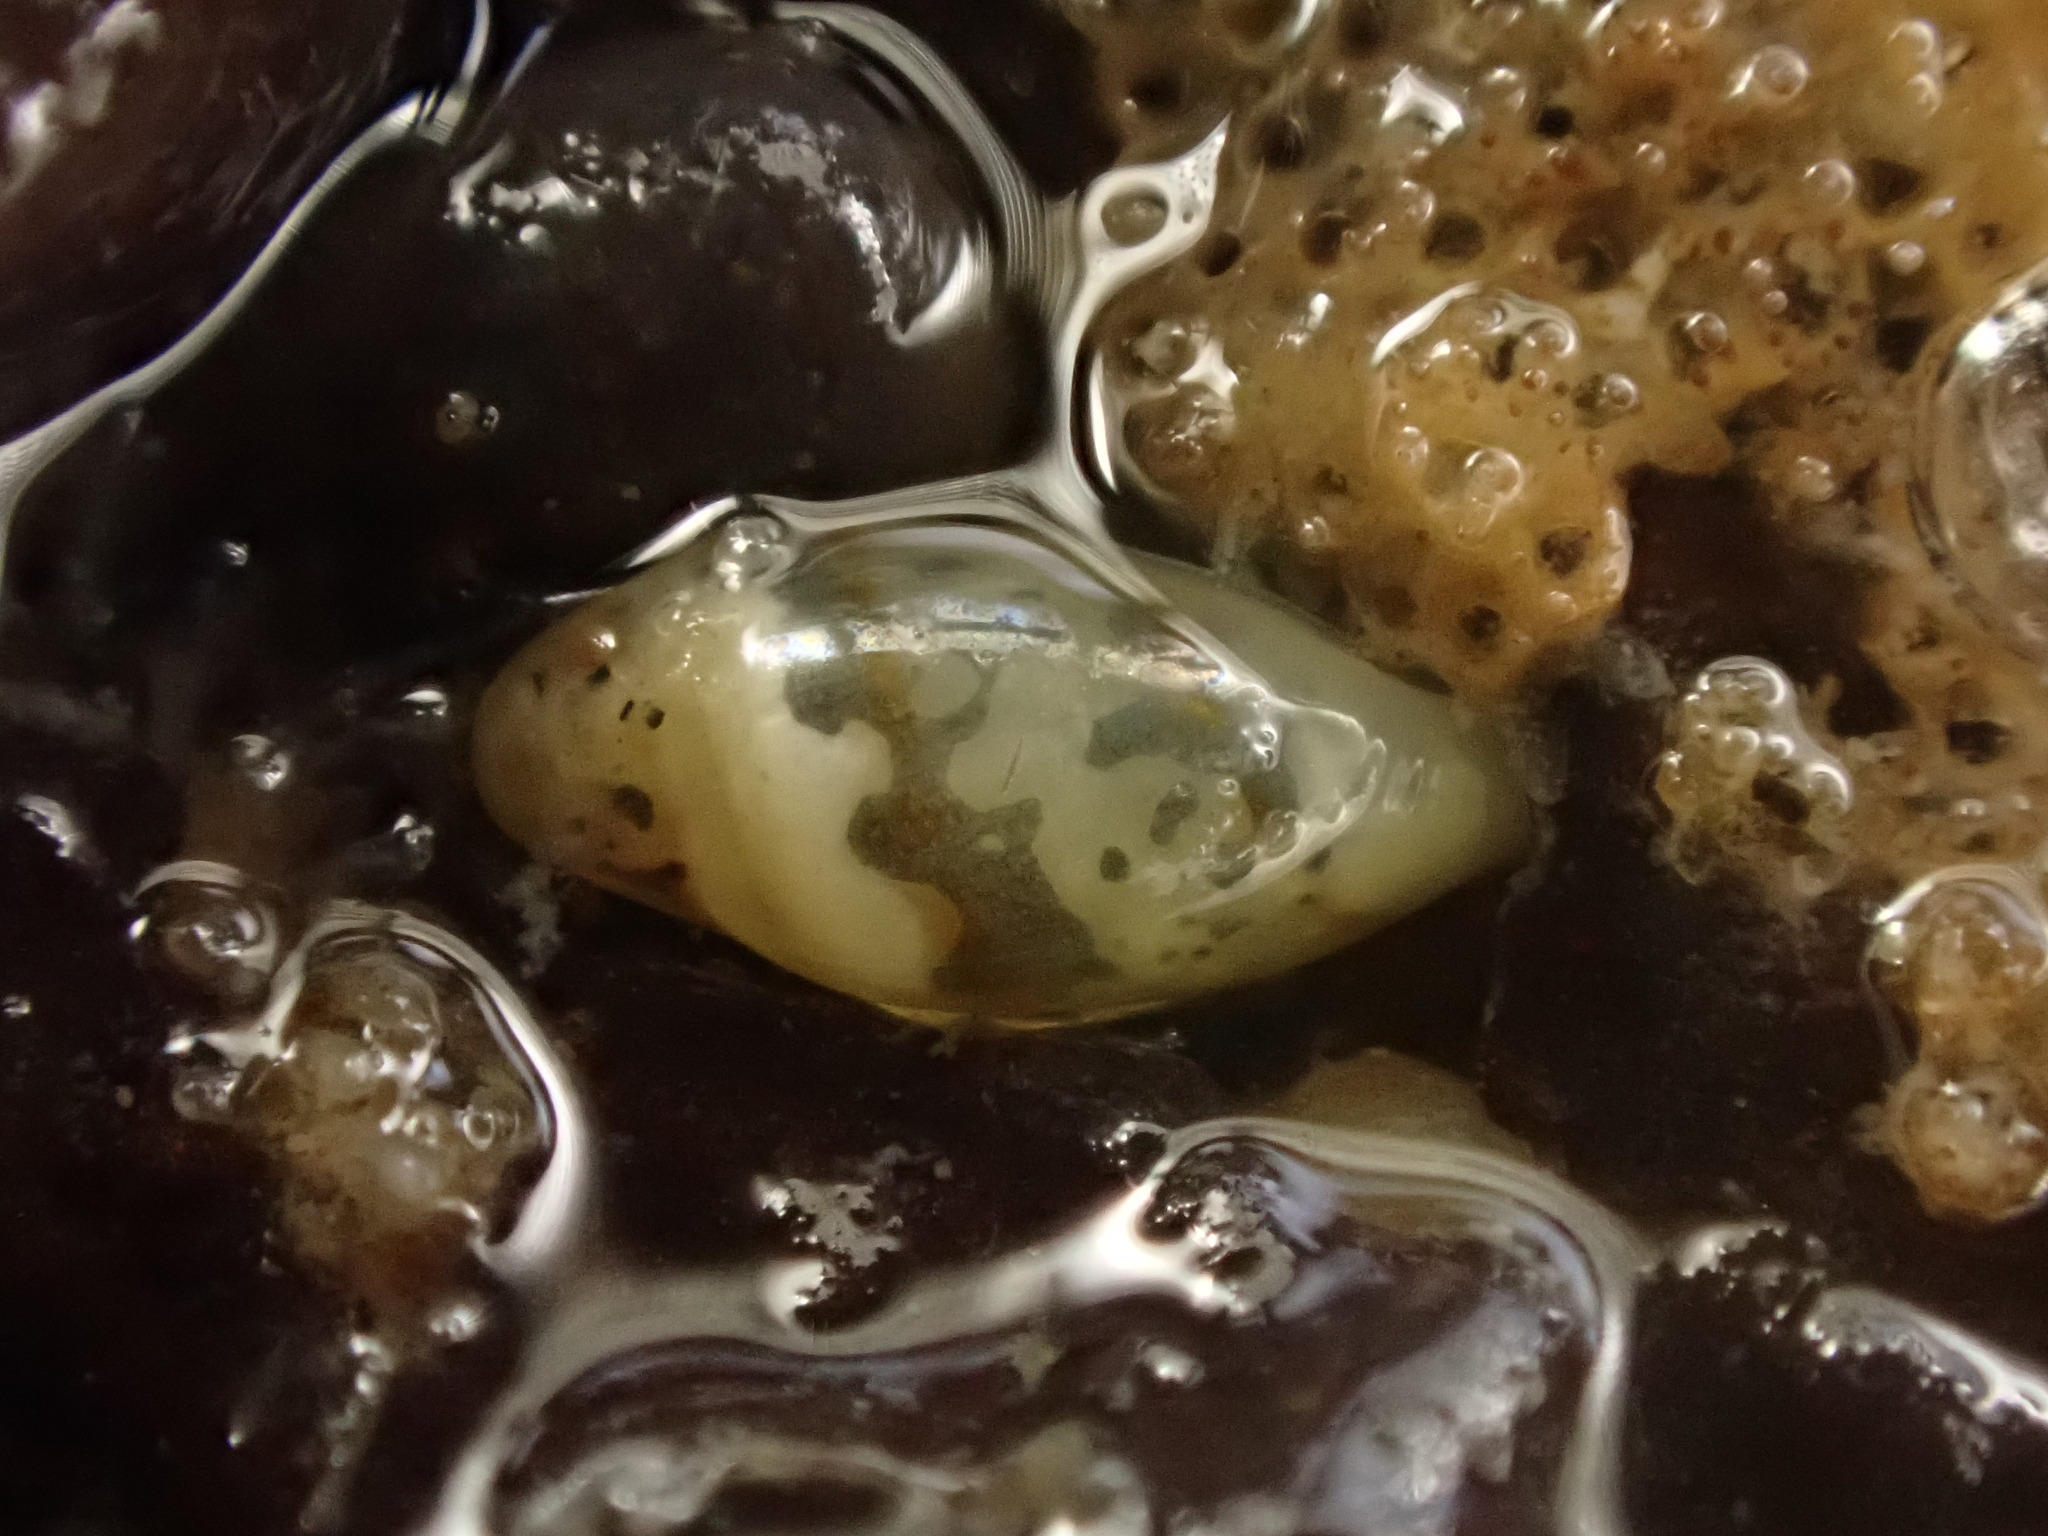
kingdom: Animalia
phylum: Mollusca
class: Gastropoda
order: Neogastropoda
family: Marginellidae
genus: Dentimargo
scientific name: Dentimargo cairoma
